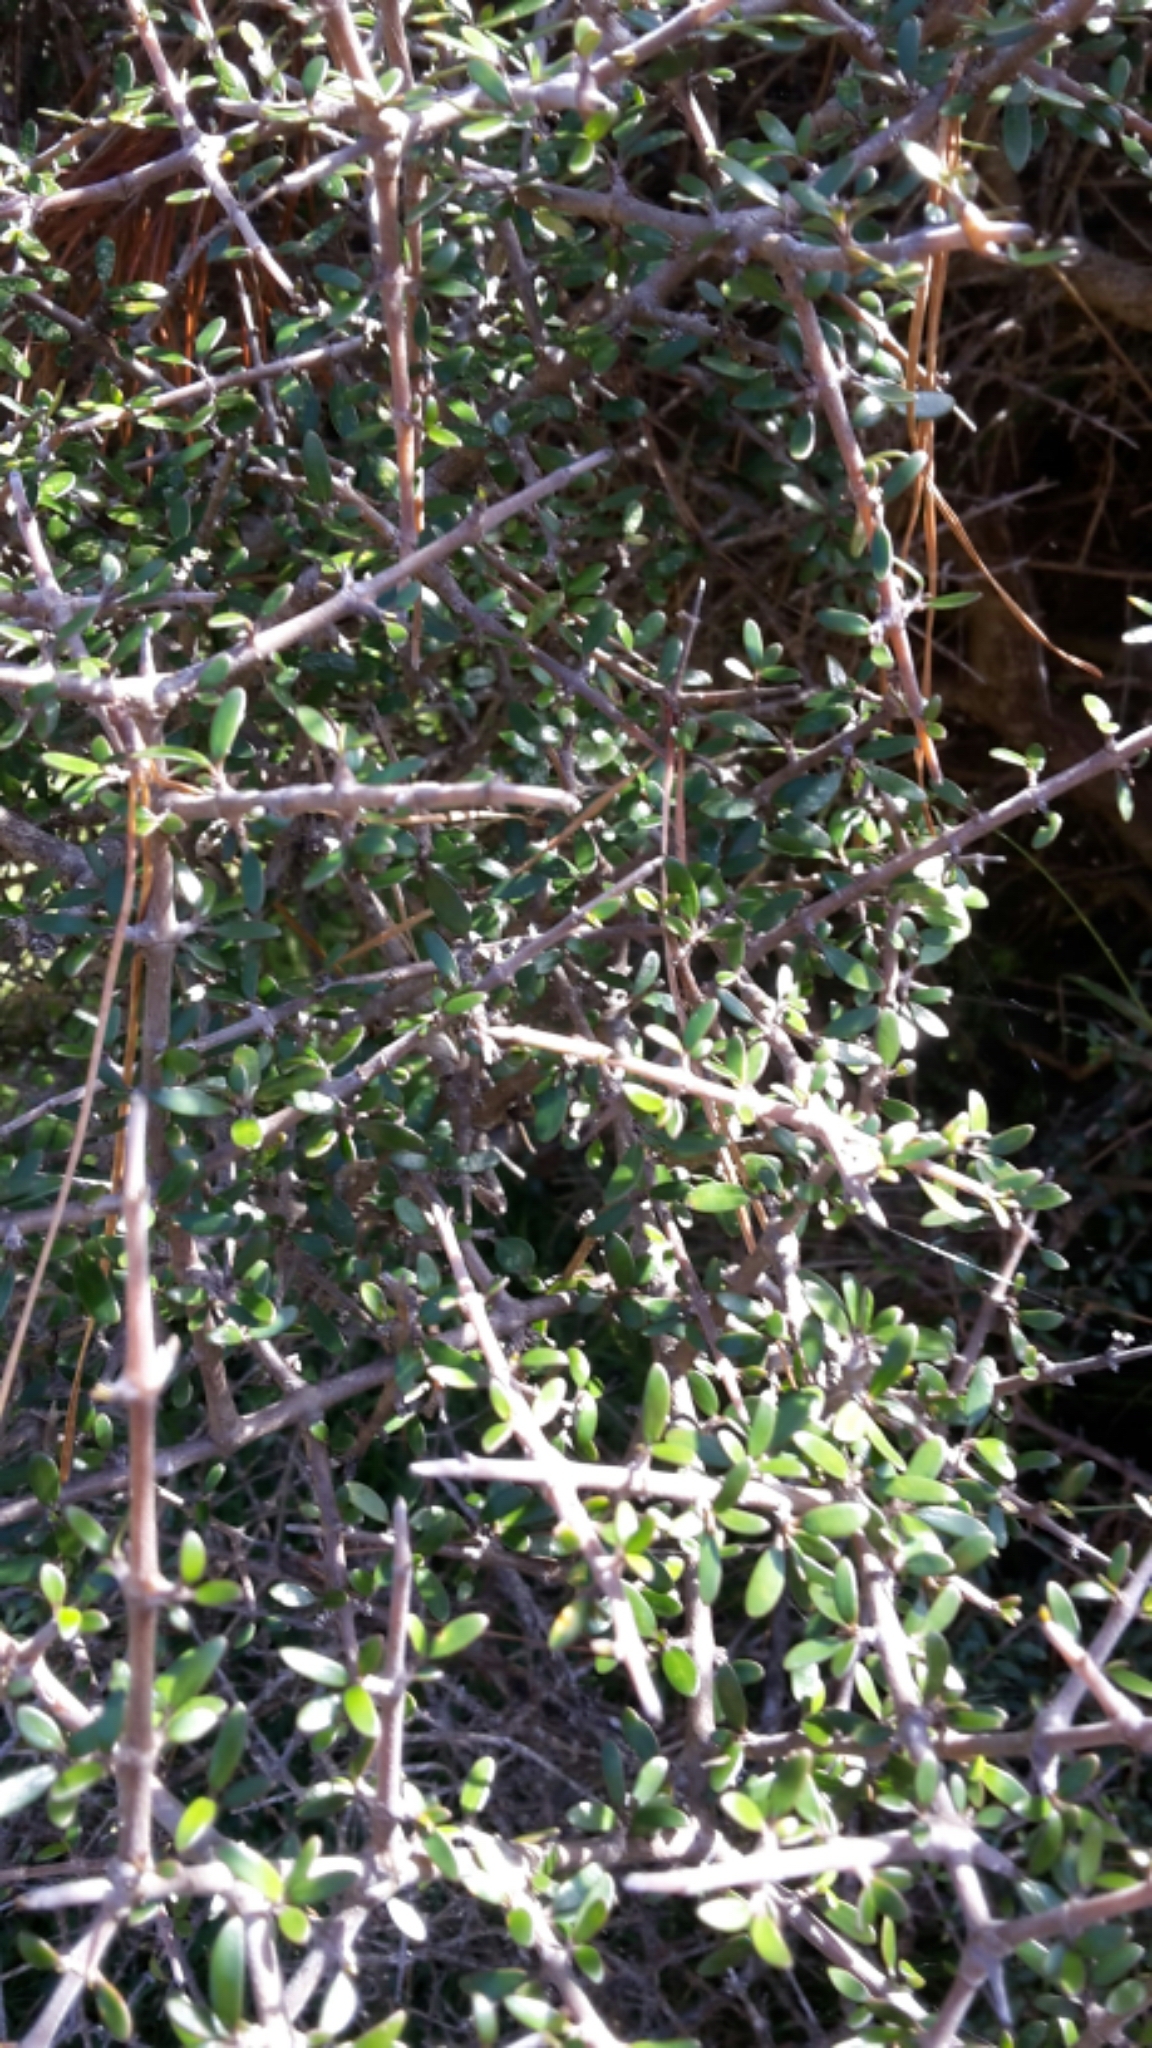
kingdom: Plantae
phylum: Tracheophyta
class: Magnoliopsida
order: Gentianales
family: Rubiaceae
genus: Coprosma
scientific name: Coprosma propinqua
